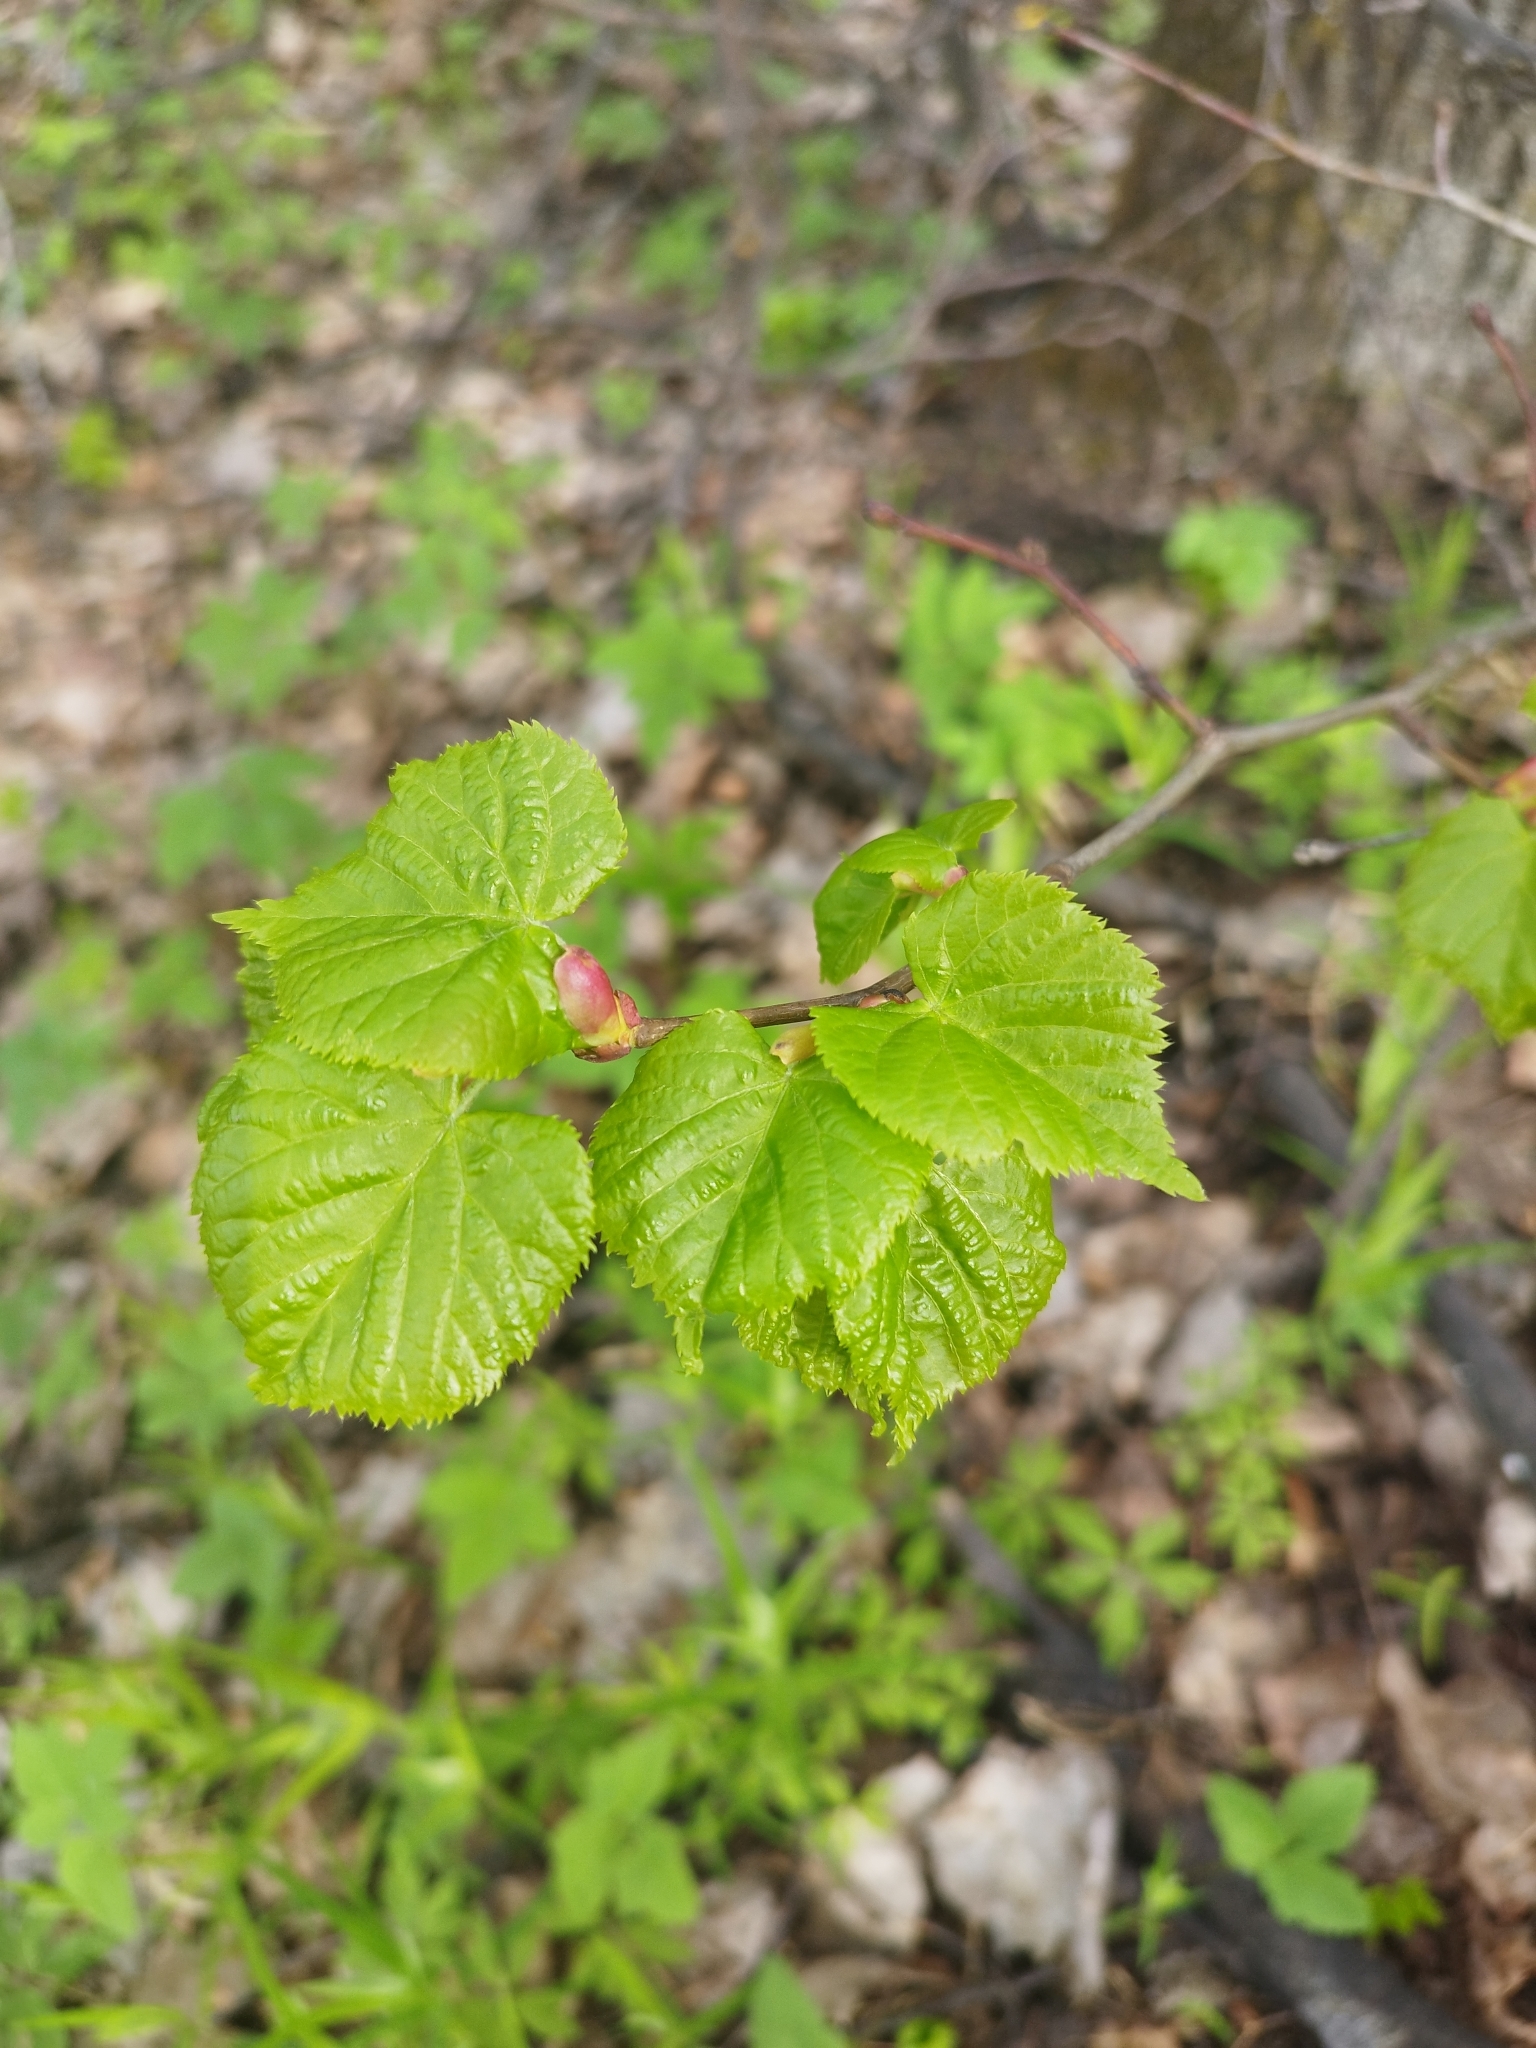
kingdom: Plantae
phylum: Tracheophyta
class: Magnoliopsida
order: Malvales
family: Malvaceae
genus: Tilia
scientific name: Tilia cordata
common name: Small-leaved lime
